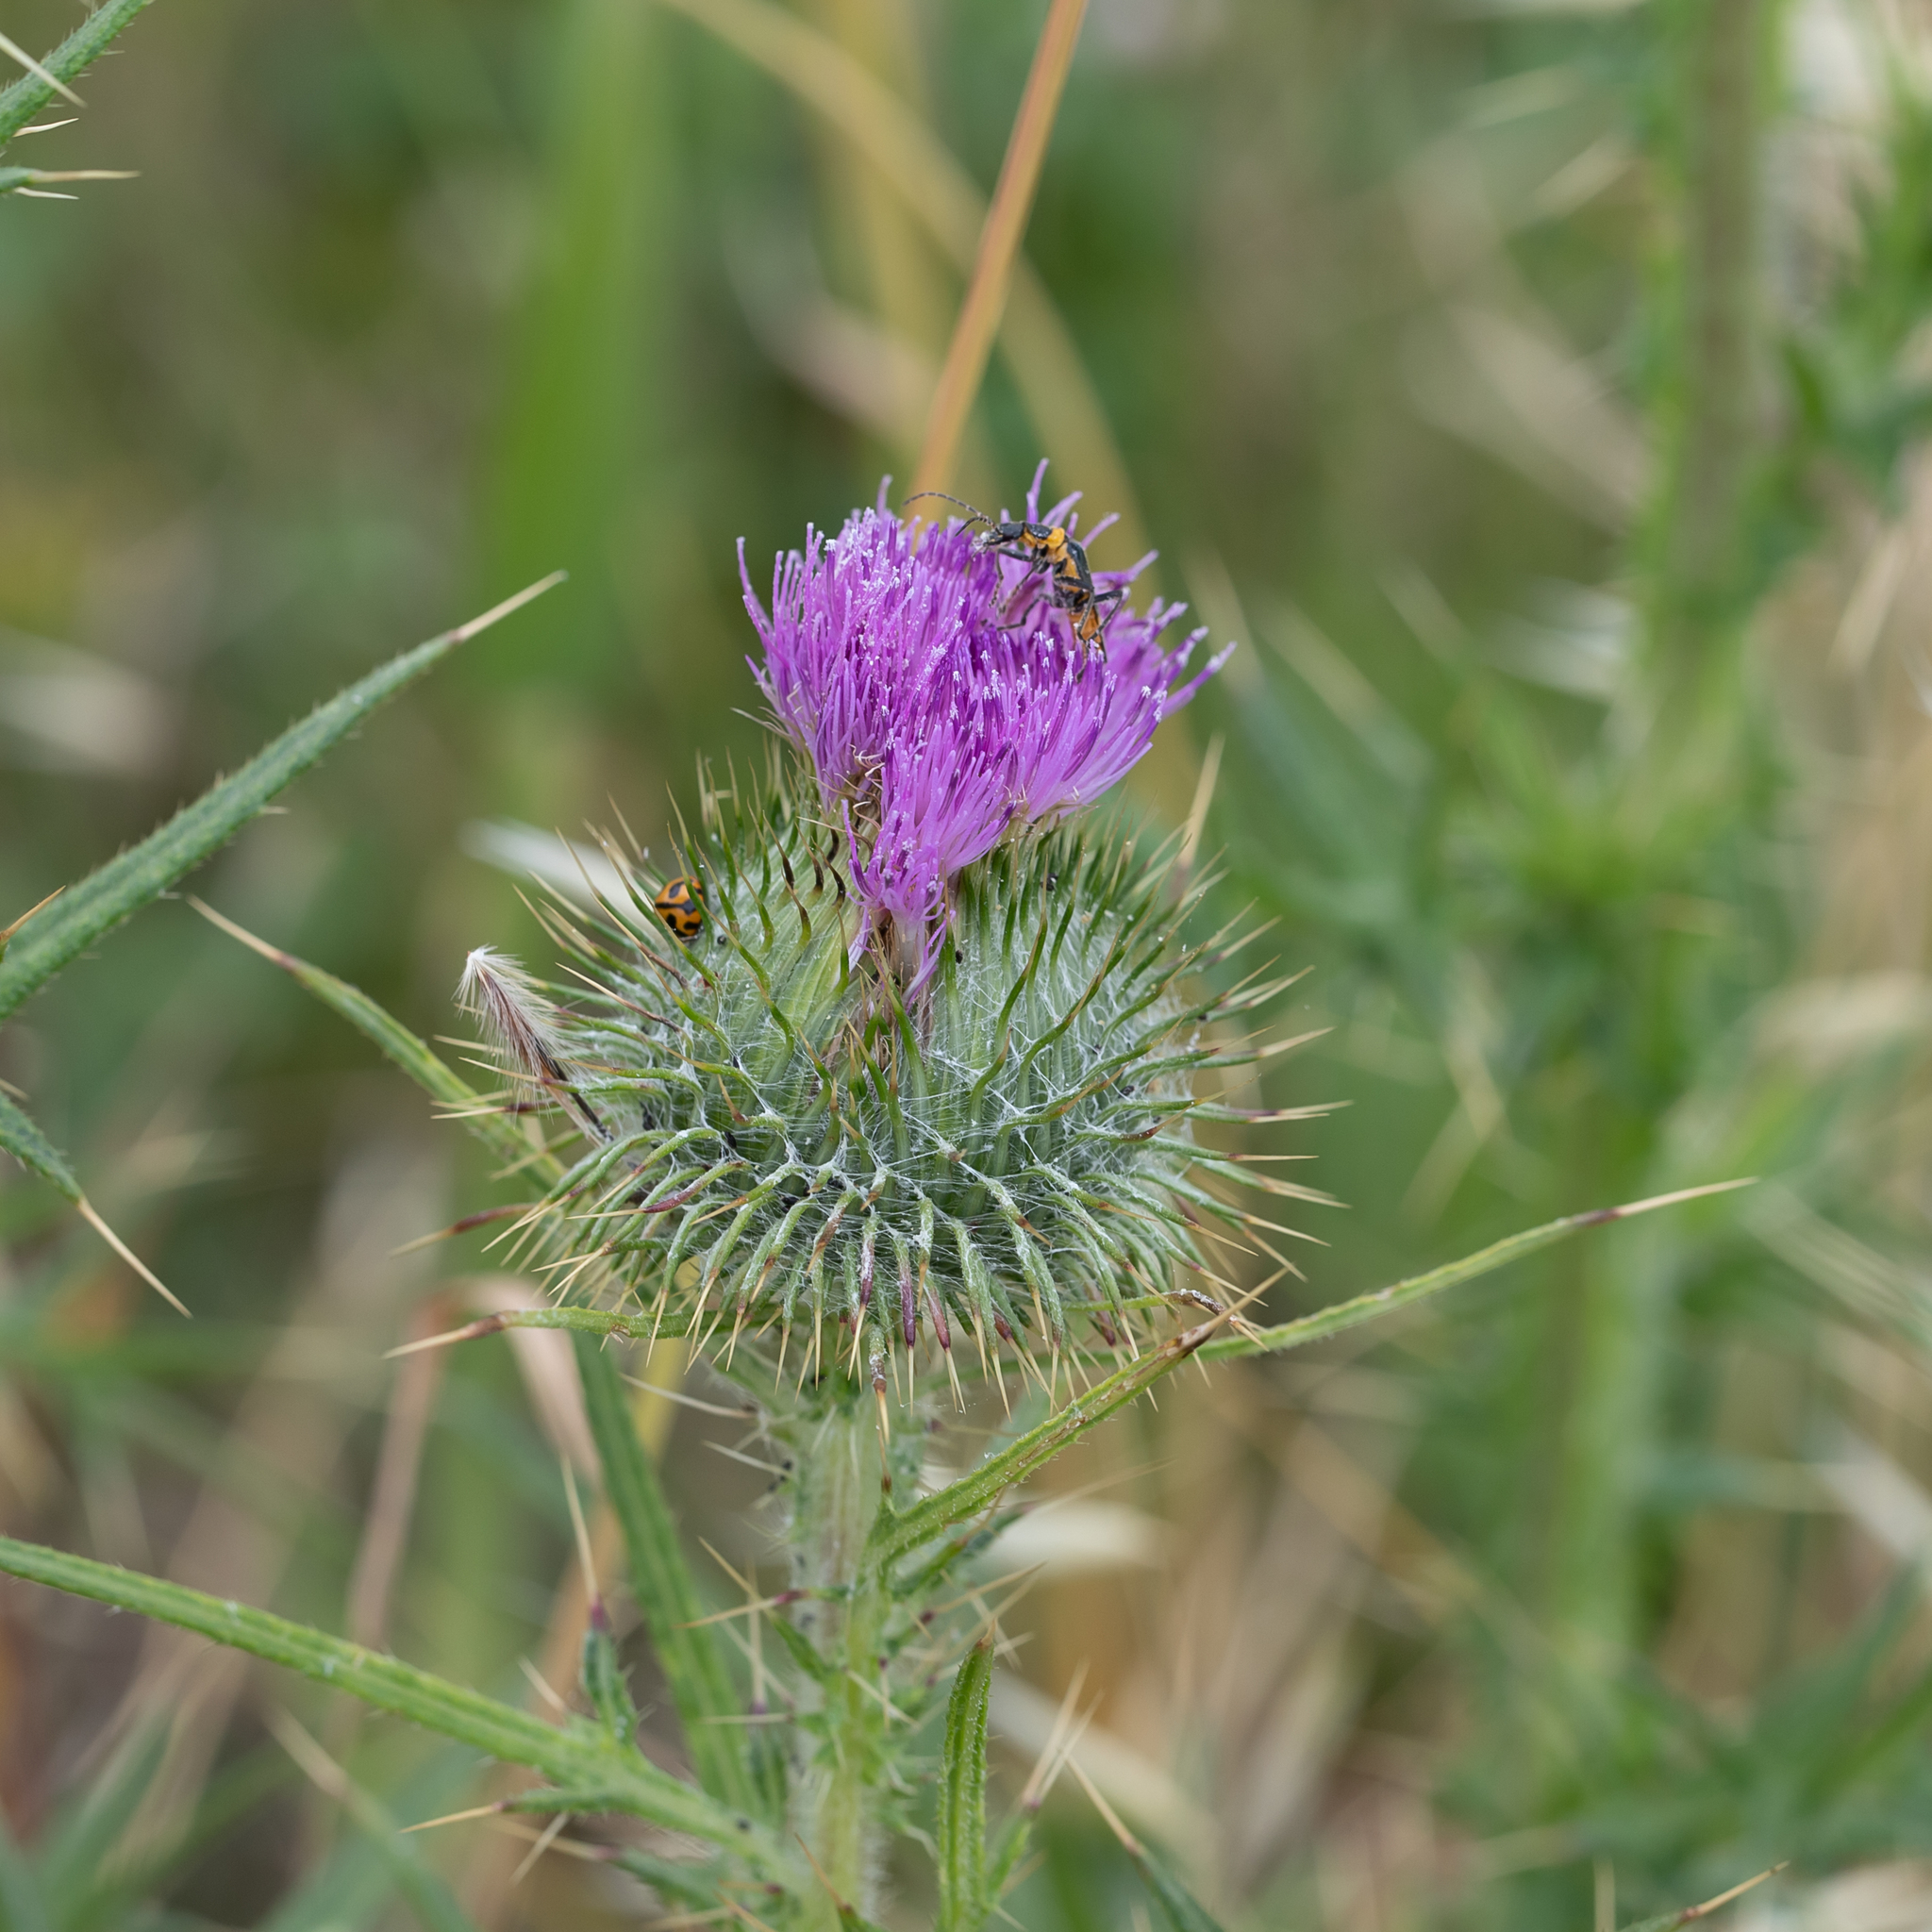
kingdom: Plantae
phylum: Tracheophyta
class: Magnoliopsida
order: Asterales
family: Asteraceae
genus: Cirsium
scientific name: Cirsium vulgare
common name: Bull thistle
